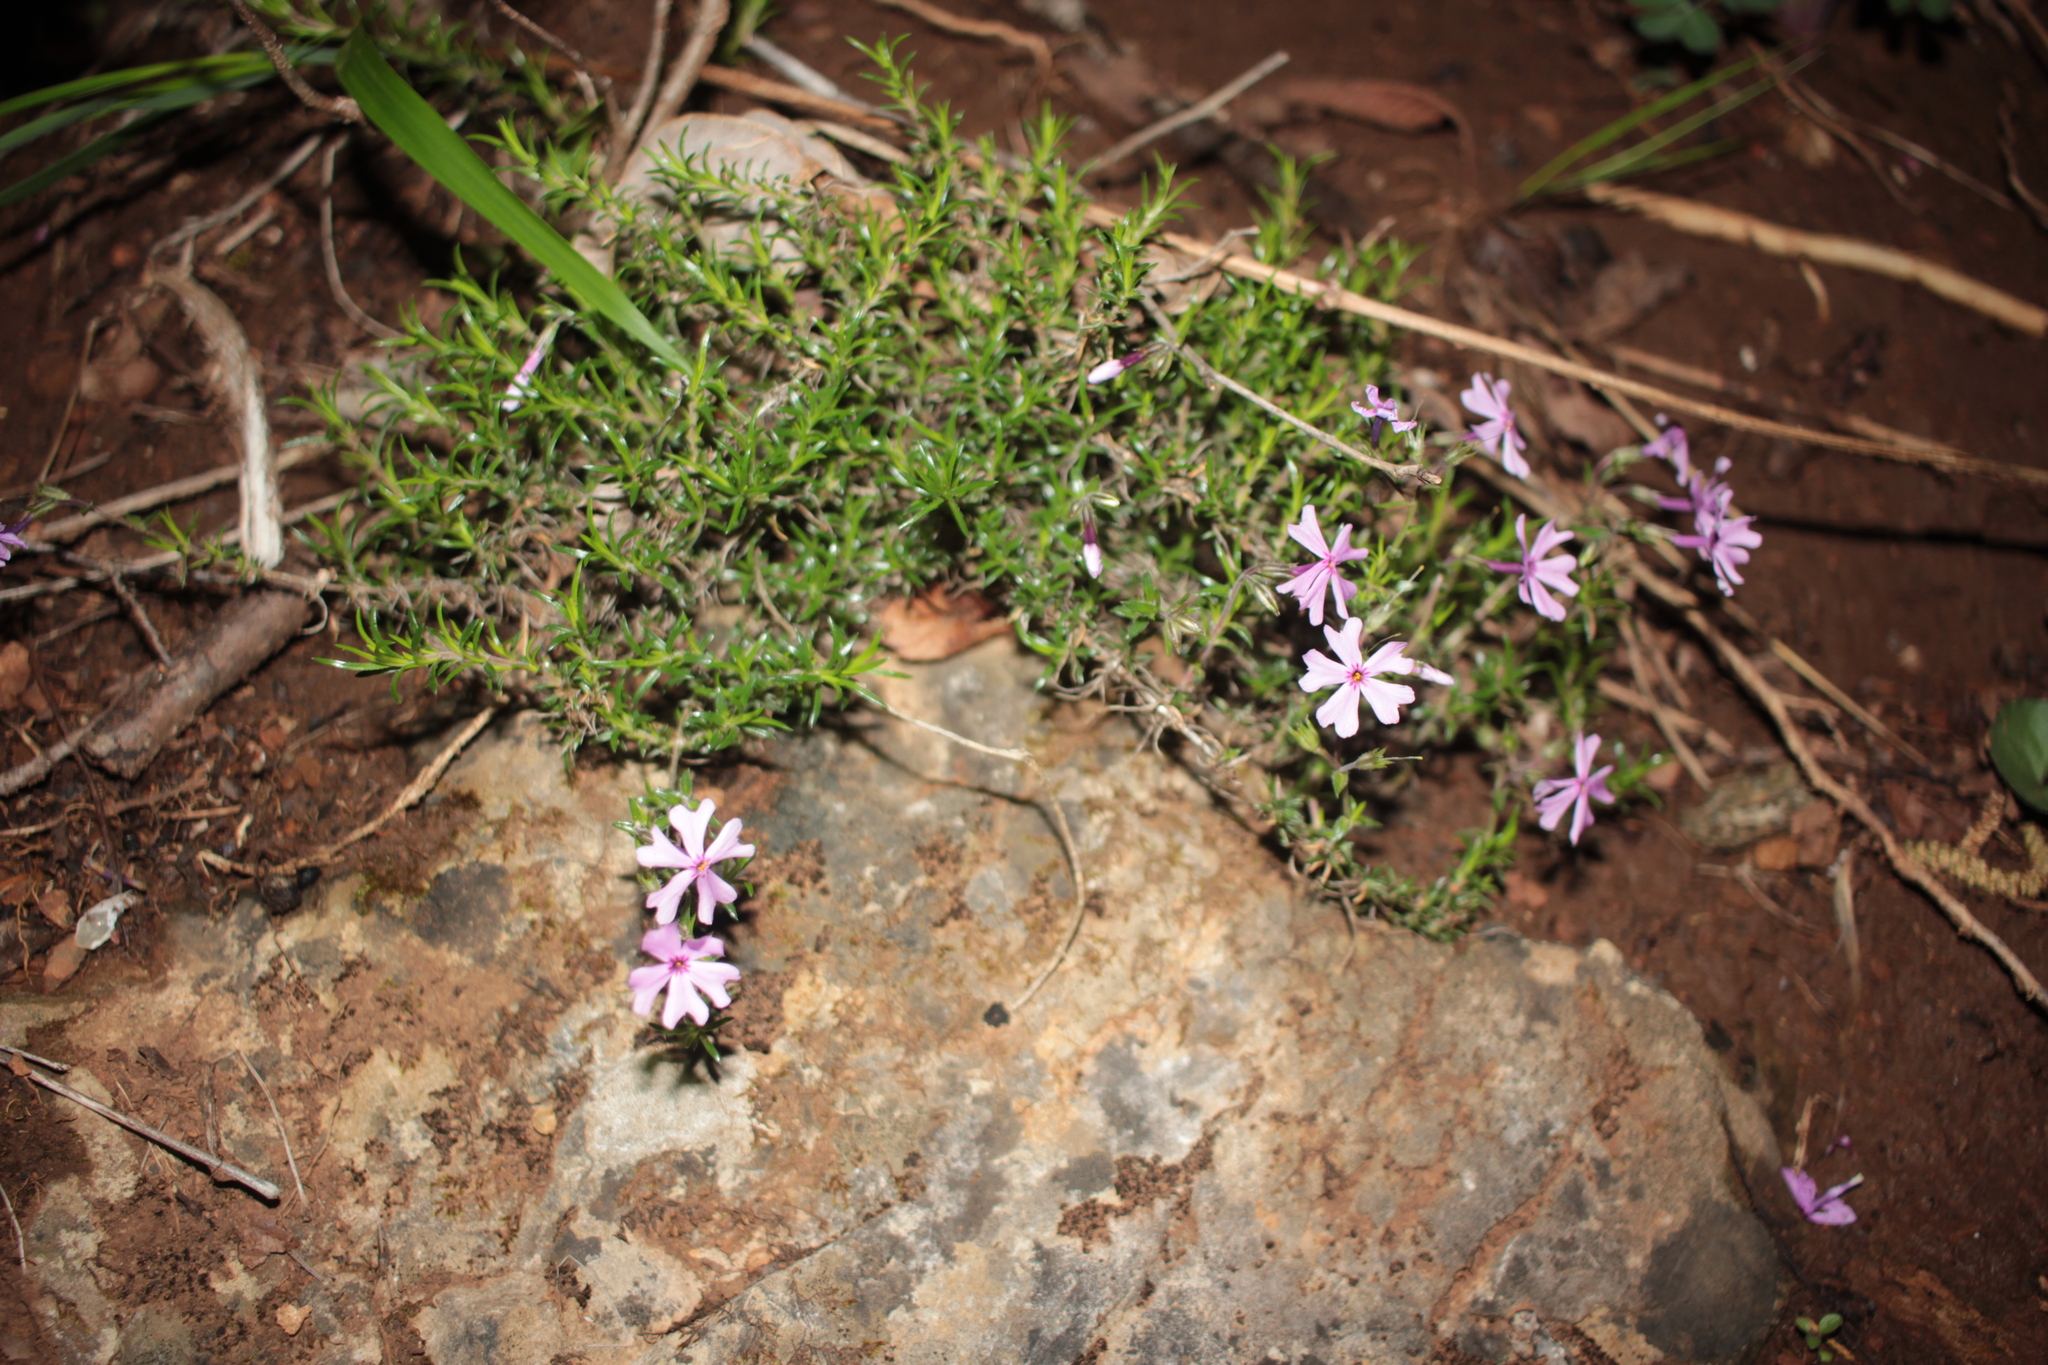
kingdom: Plantae
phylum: Tracheophyta
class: Magnoliopsida
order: Ericales
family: Polemoniaceae
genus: Phlox
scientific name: Phlox subulata
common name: Moss phlox
